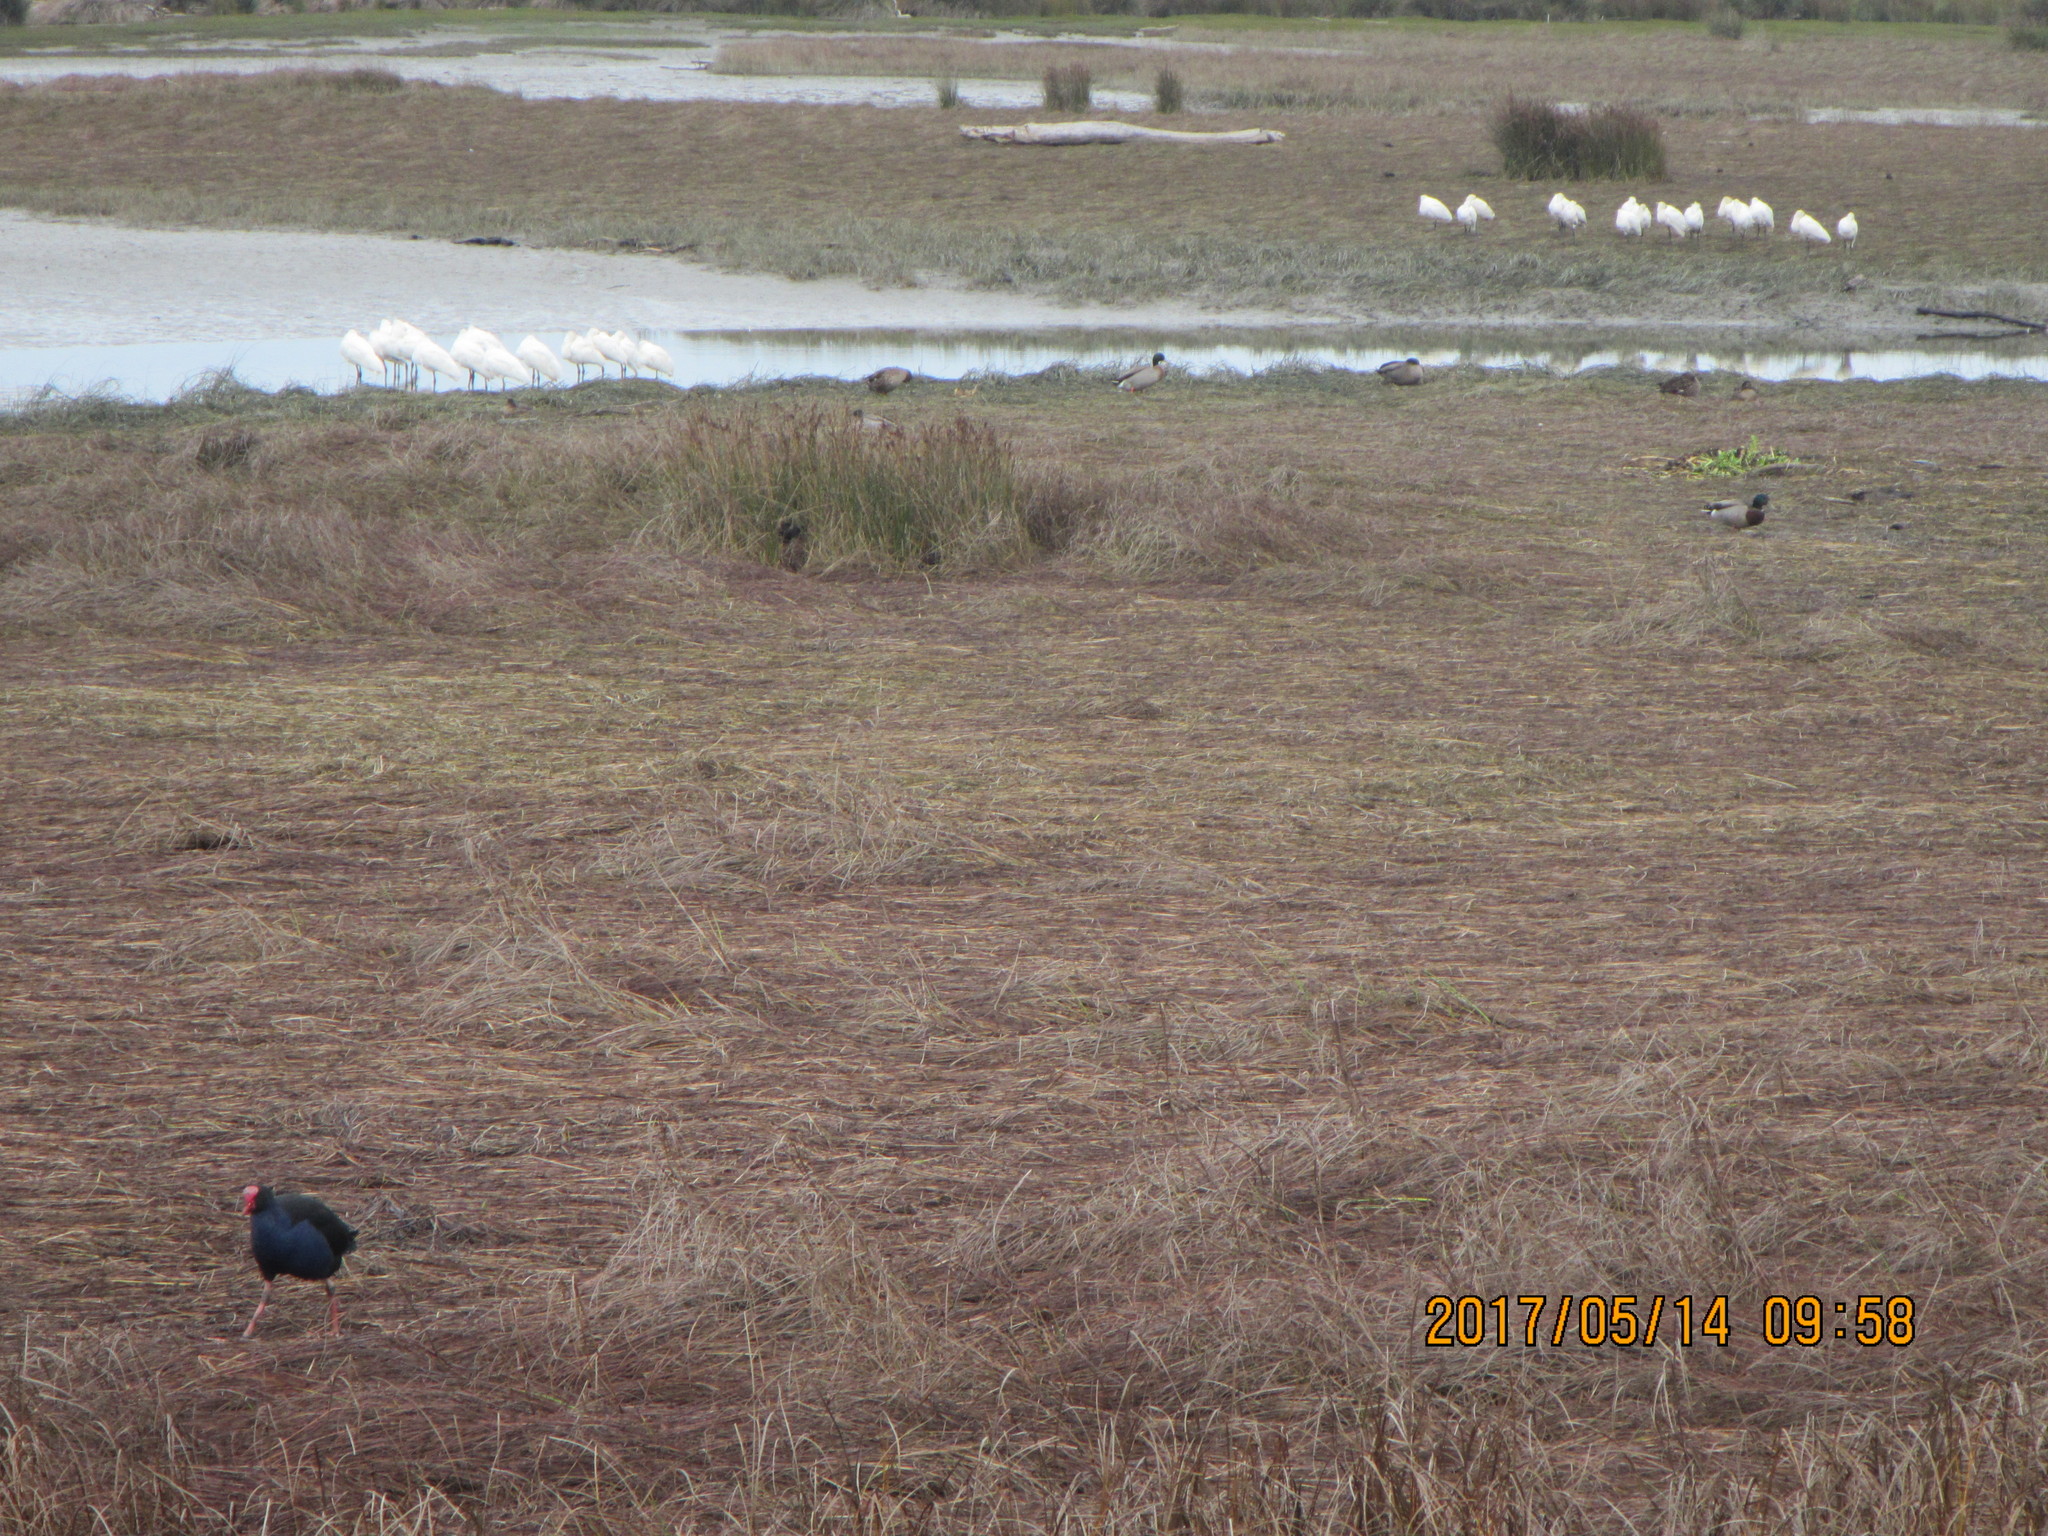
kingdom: Animalia
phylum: Chordata
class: Aves
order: Pelecaniformes
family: Threskiornithidae
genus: Platalea
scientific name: Platalea regia
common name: Royal spoonbill
